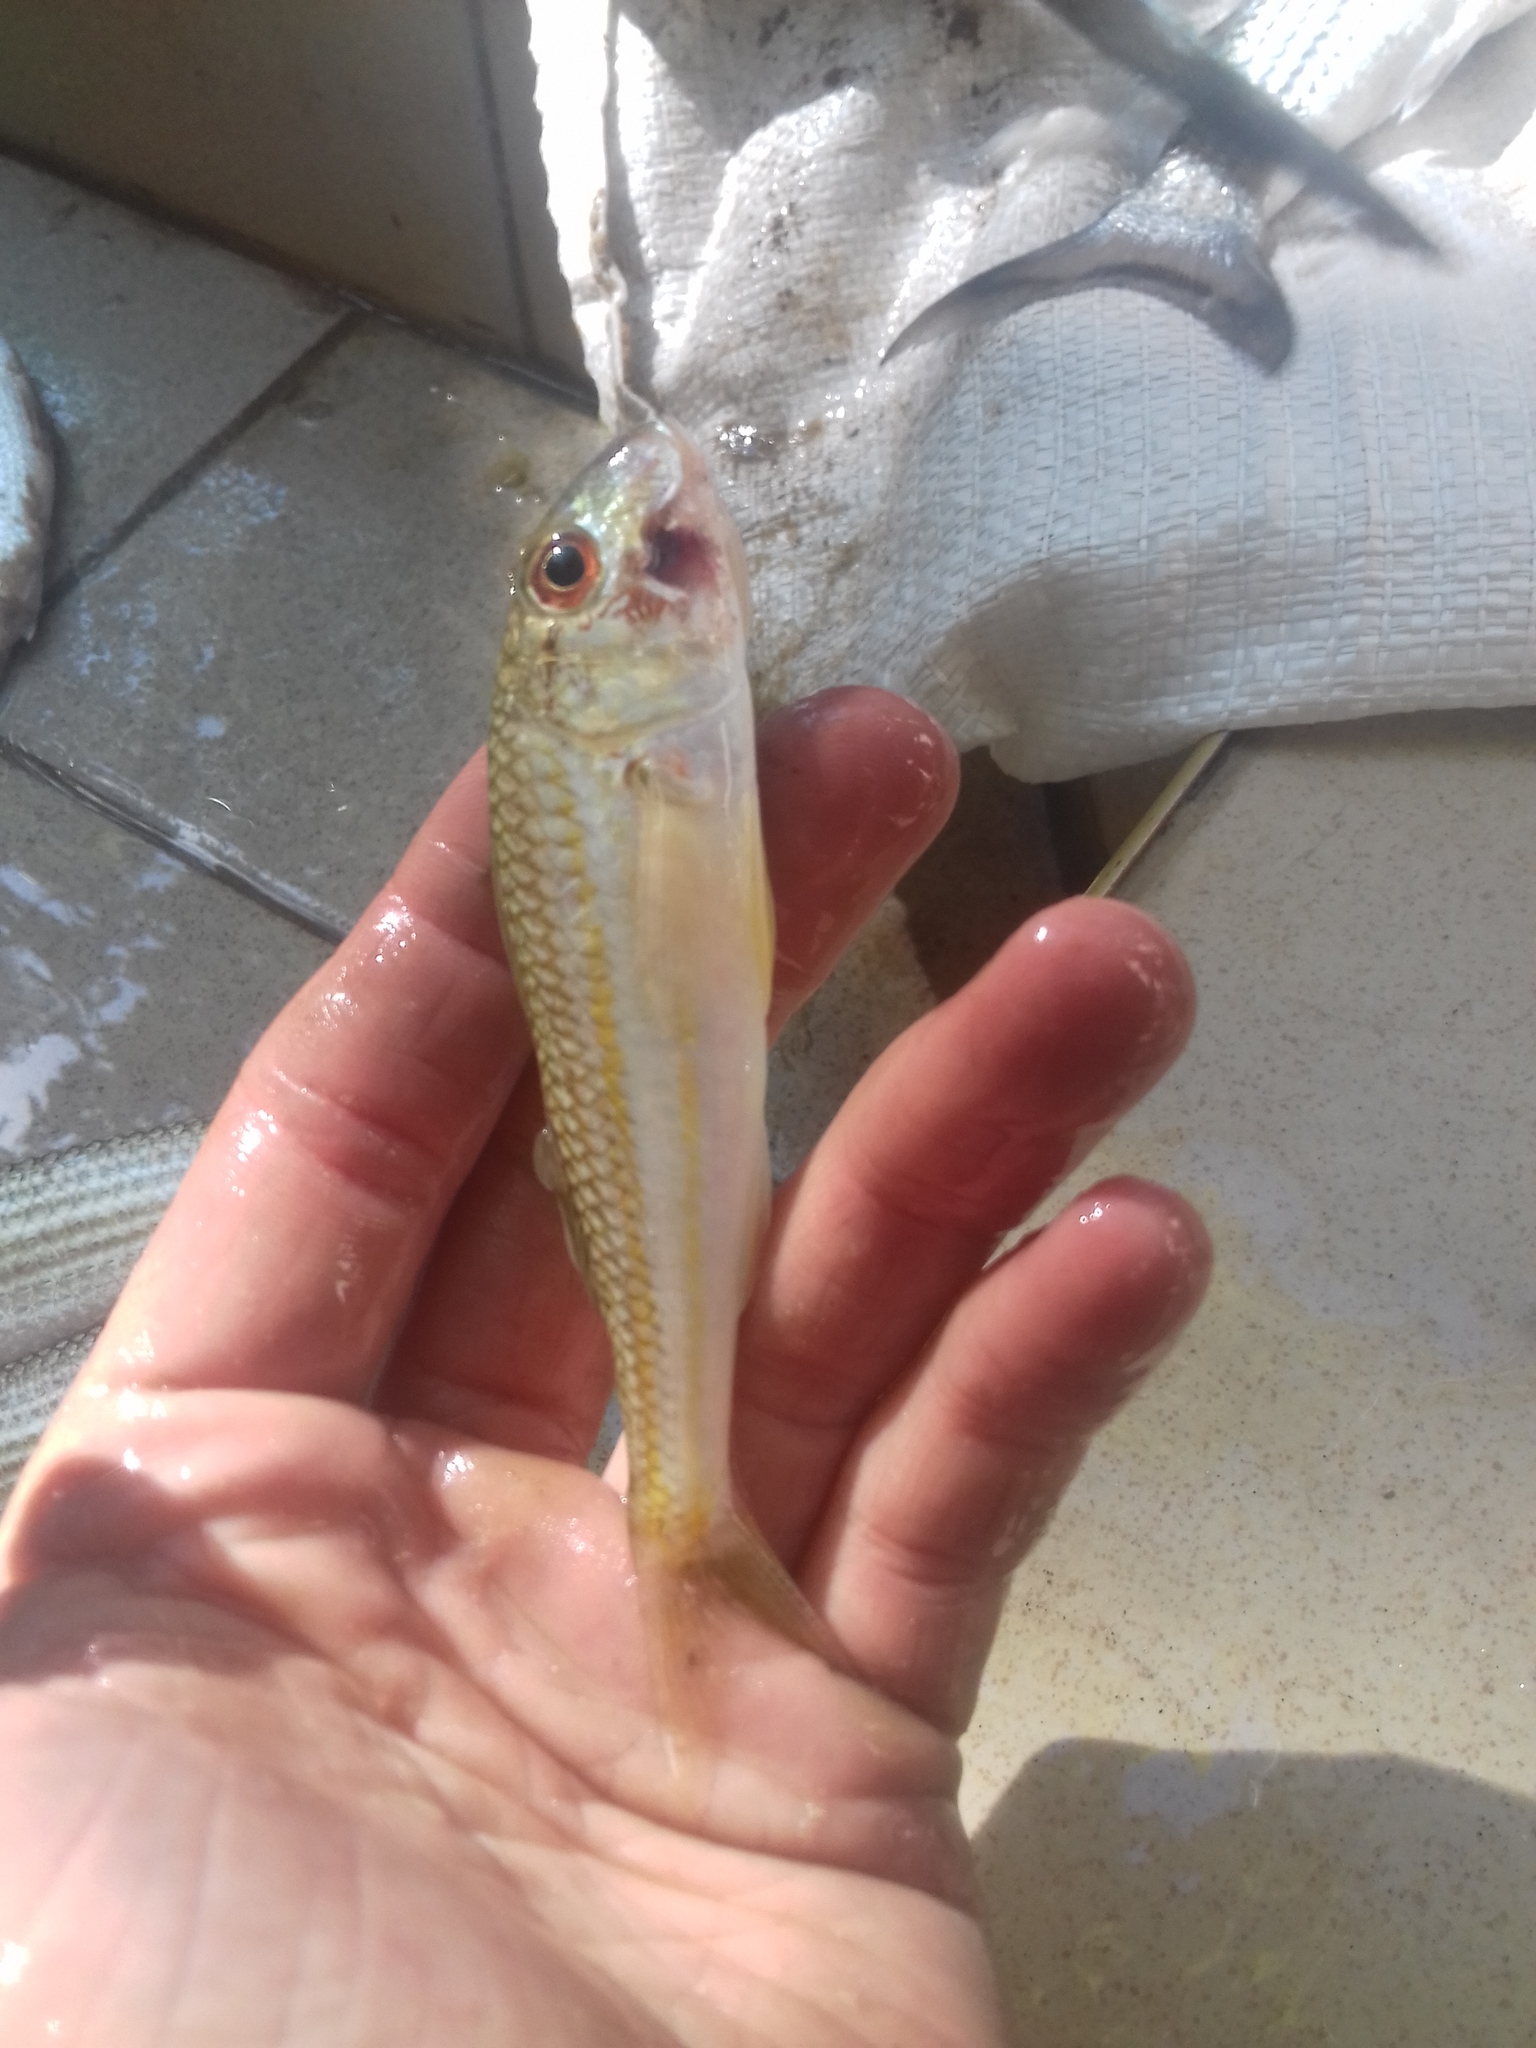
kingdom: Animalia
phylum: Chordata
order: Perciformes
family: Mullidae
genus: Mullus
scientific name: Mullus barbatus
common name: Blunt-snouted mullet
